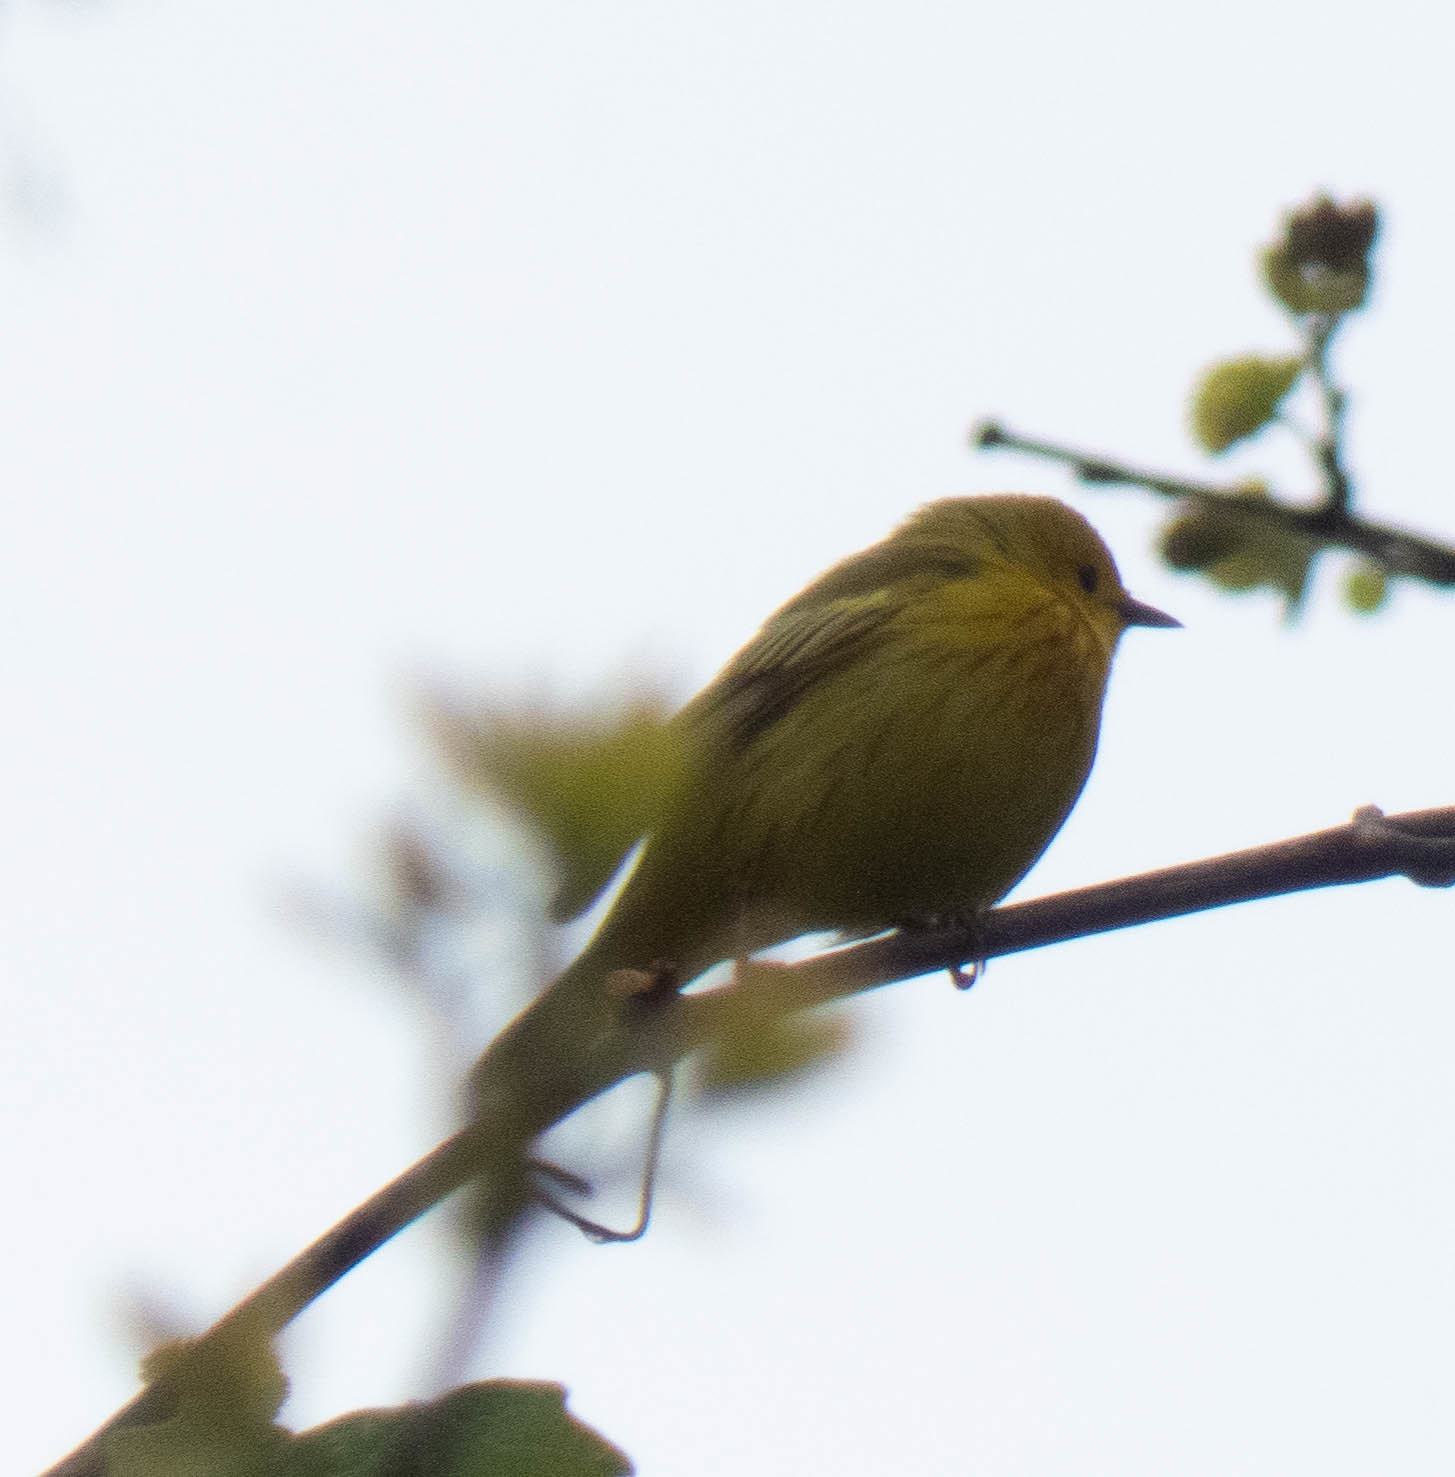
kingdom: Animalia
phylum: Chordata
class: Aves
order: Passeriformes
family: Parulidae
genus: Setophaga
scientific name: Setophaga petechia
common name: Yellow warbler
